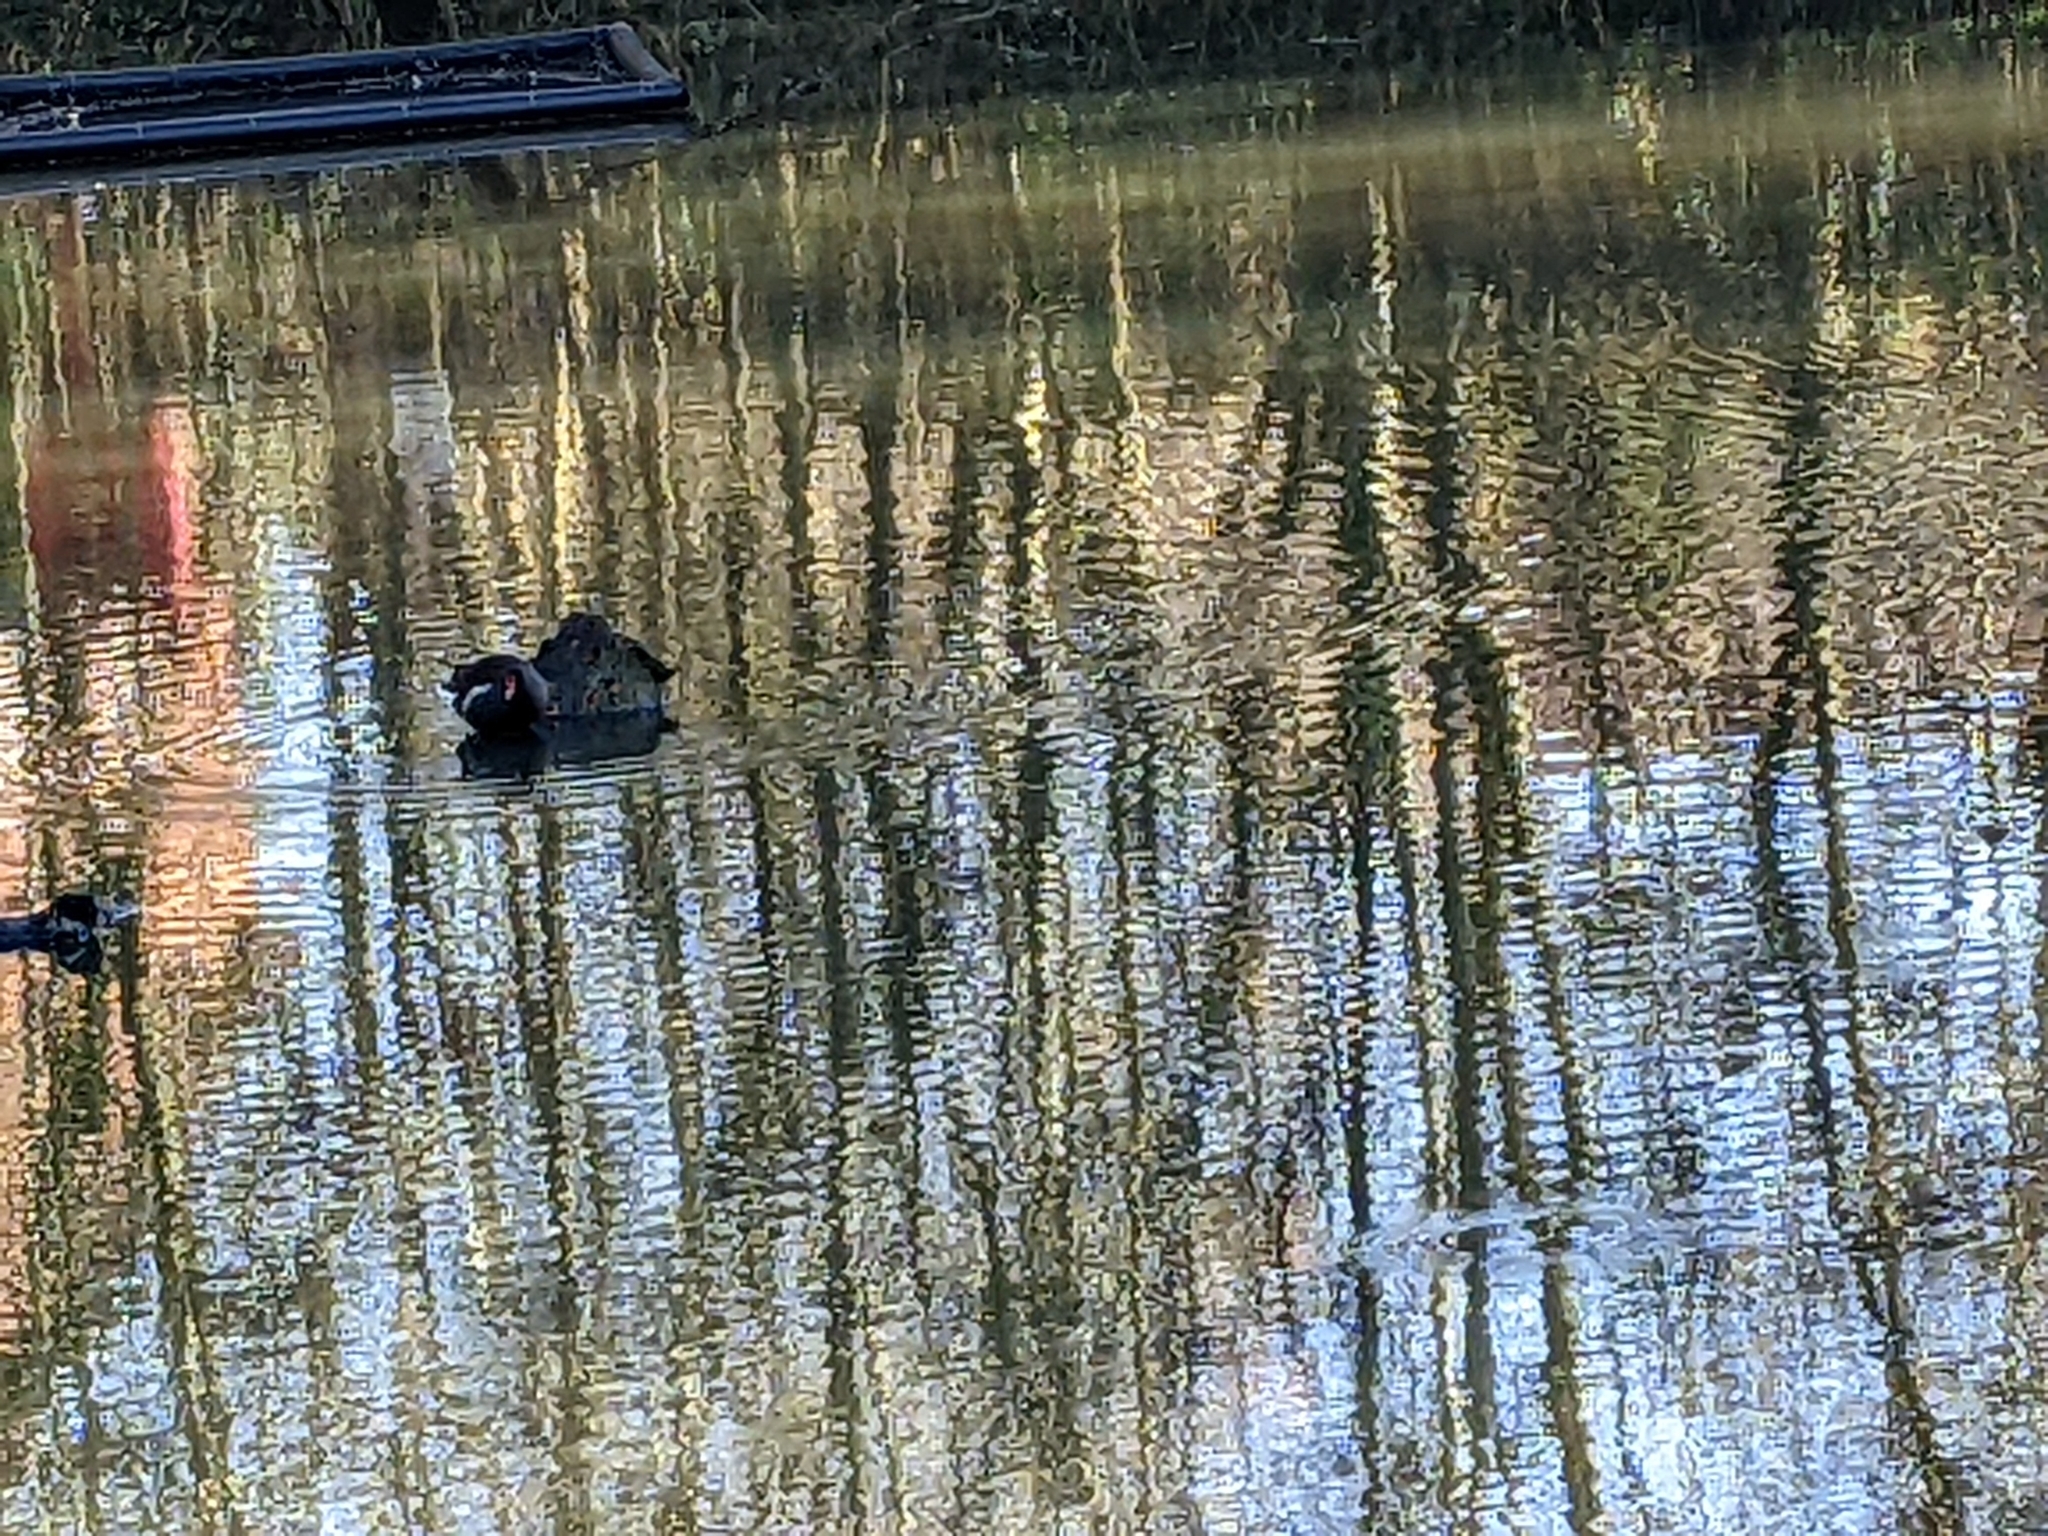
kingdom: Animalia
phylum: Chordata
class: Aves
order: Gruiformes
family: Rallidae
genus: Gallinula
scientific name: Gallinula chloropus
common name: Common moorhen
